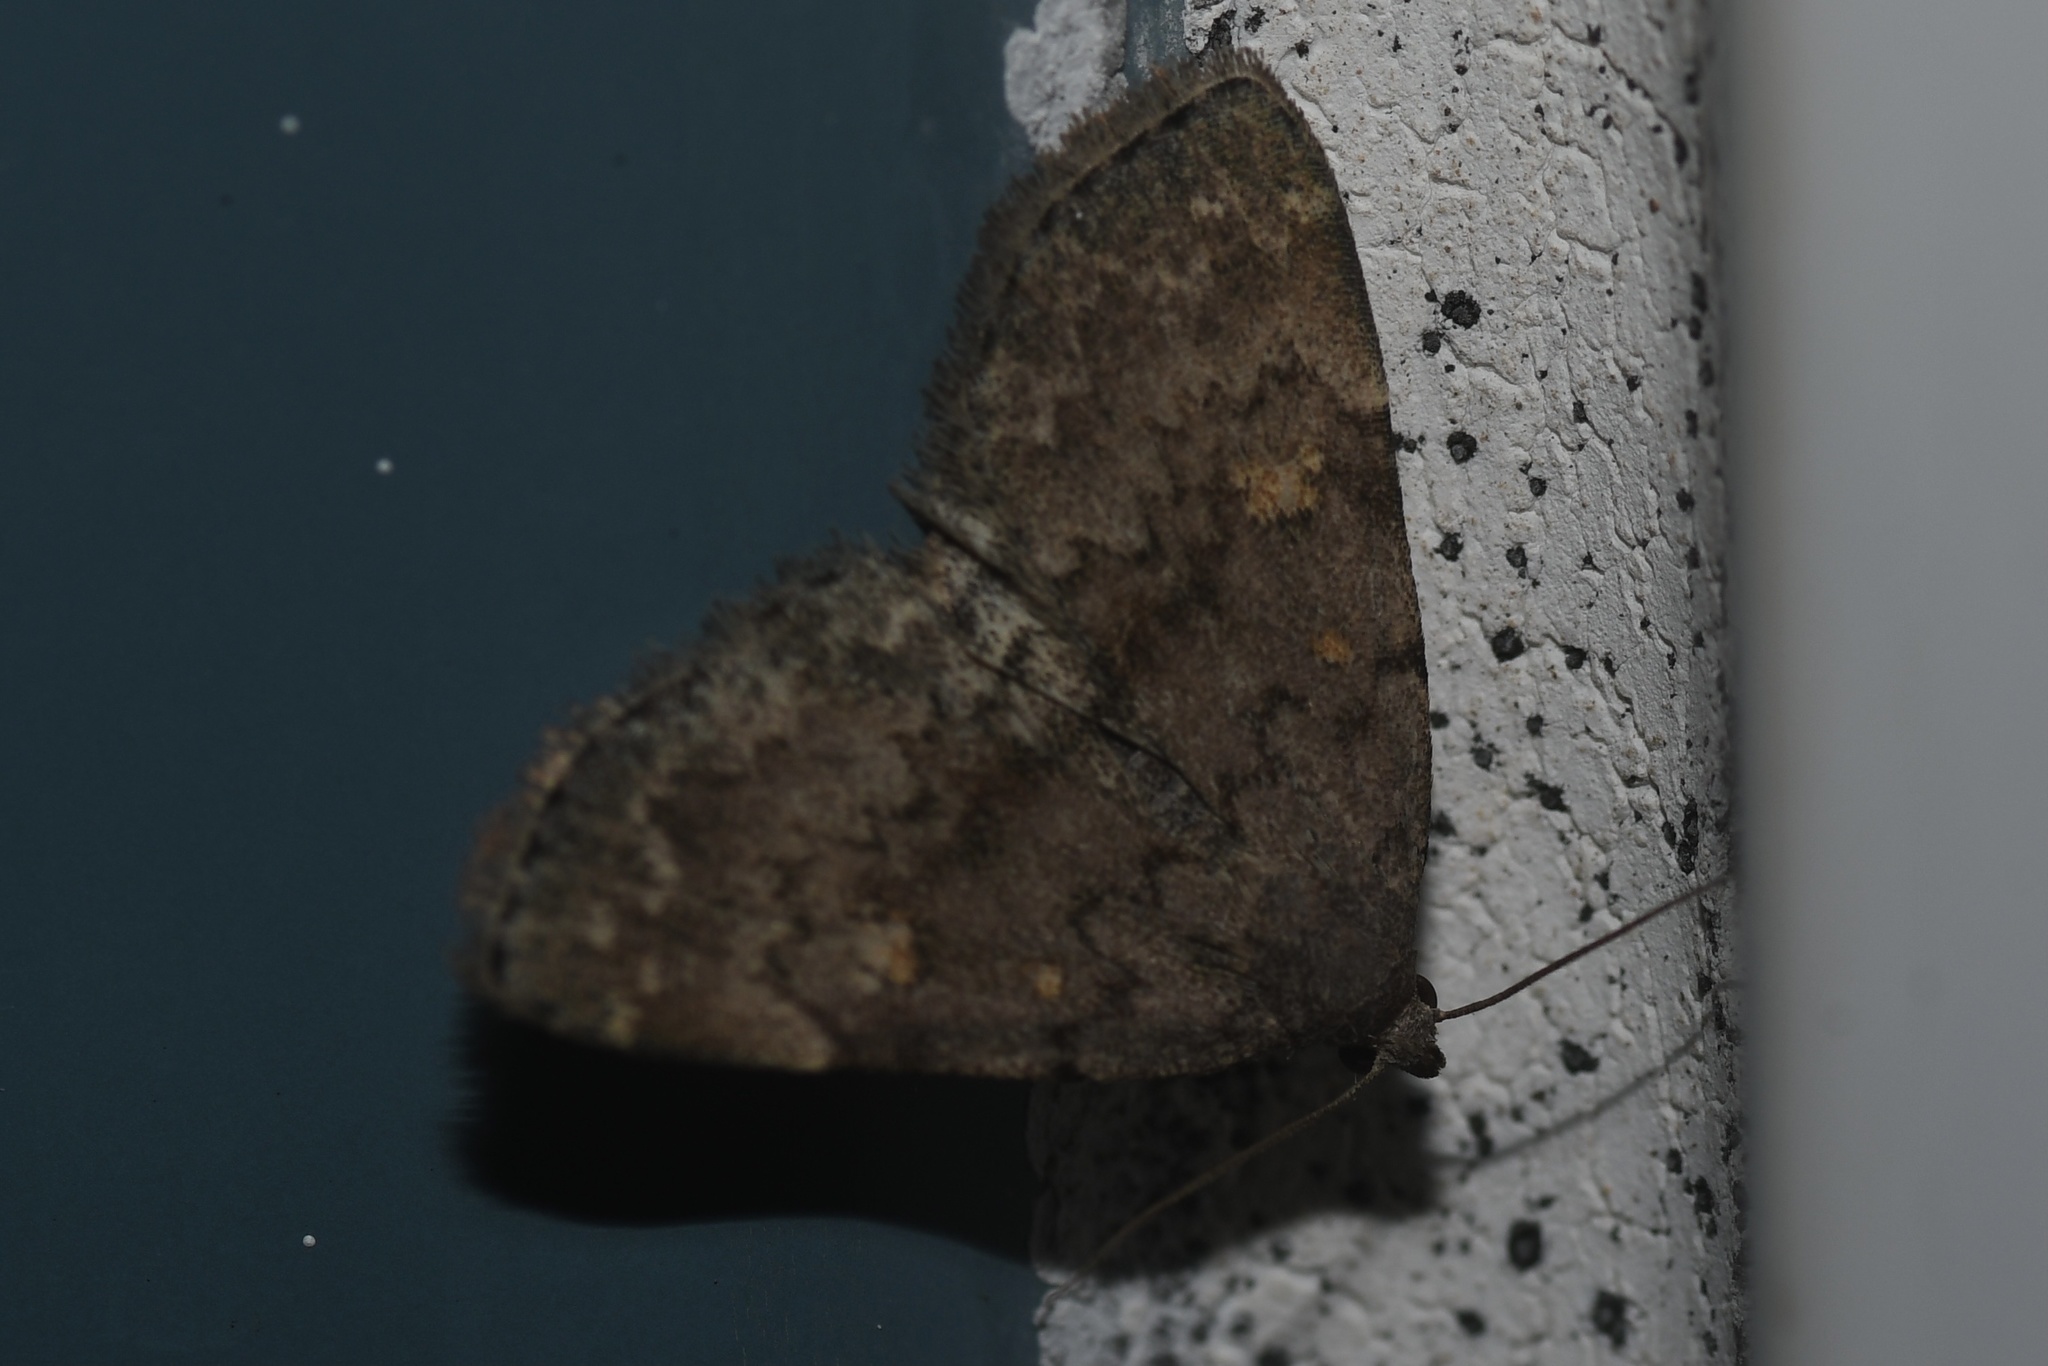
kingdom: Animalia
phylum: Arthropoda
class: Insecta
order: Lepidoptera
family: Erebidae
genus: Idia
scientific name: Idia aemula
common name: Common idia moth
